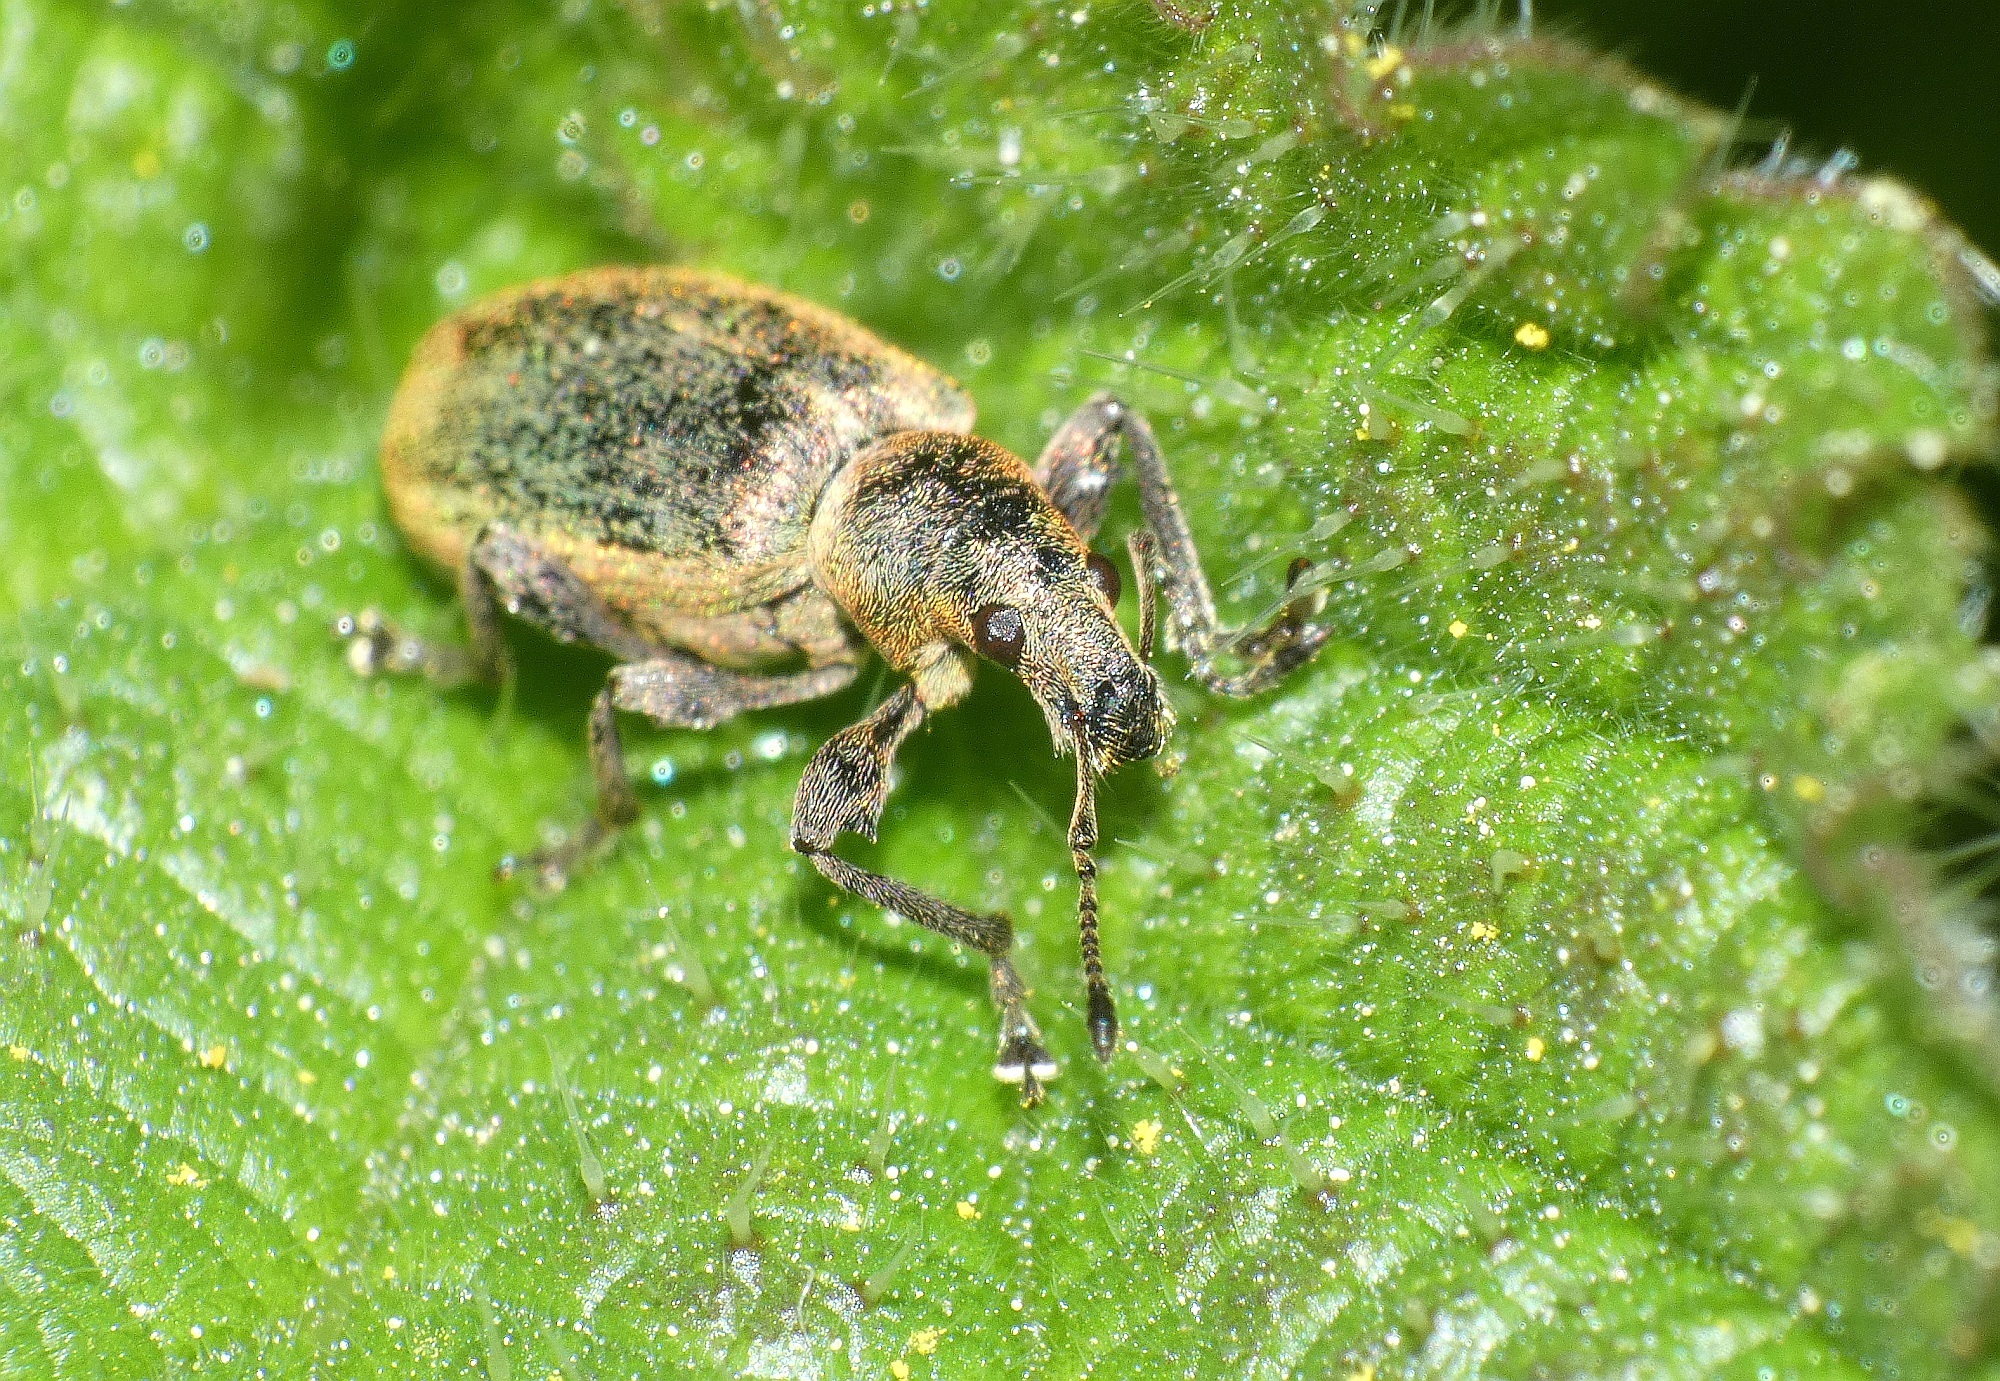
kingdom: Animalia
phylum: Arthropoda
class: Insecta
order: Coleoptera
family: Curculionidae
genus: Phyllobius
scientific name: Phyllobius pomaceus
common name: Green nettle weevil
